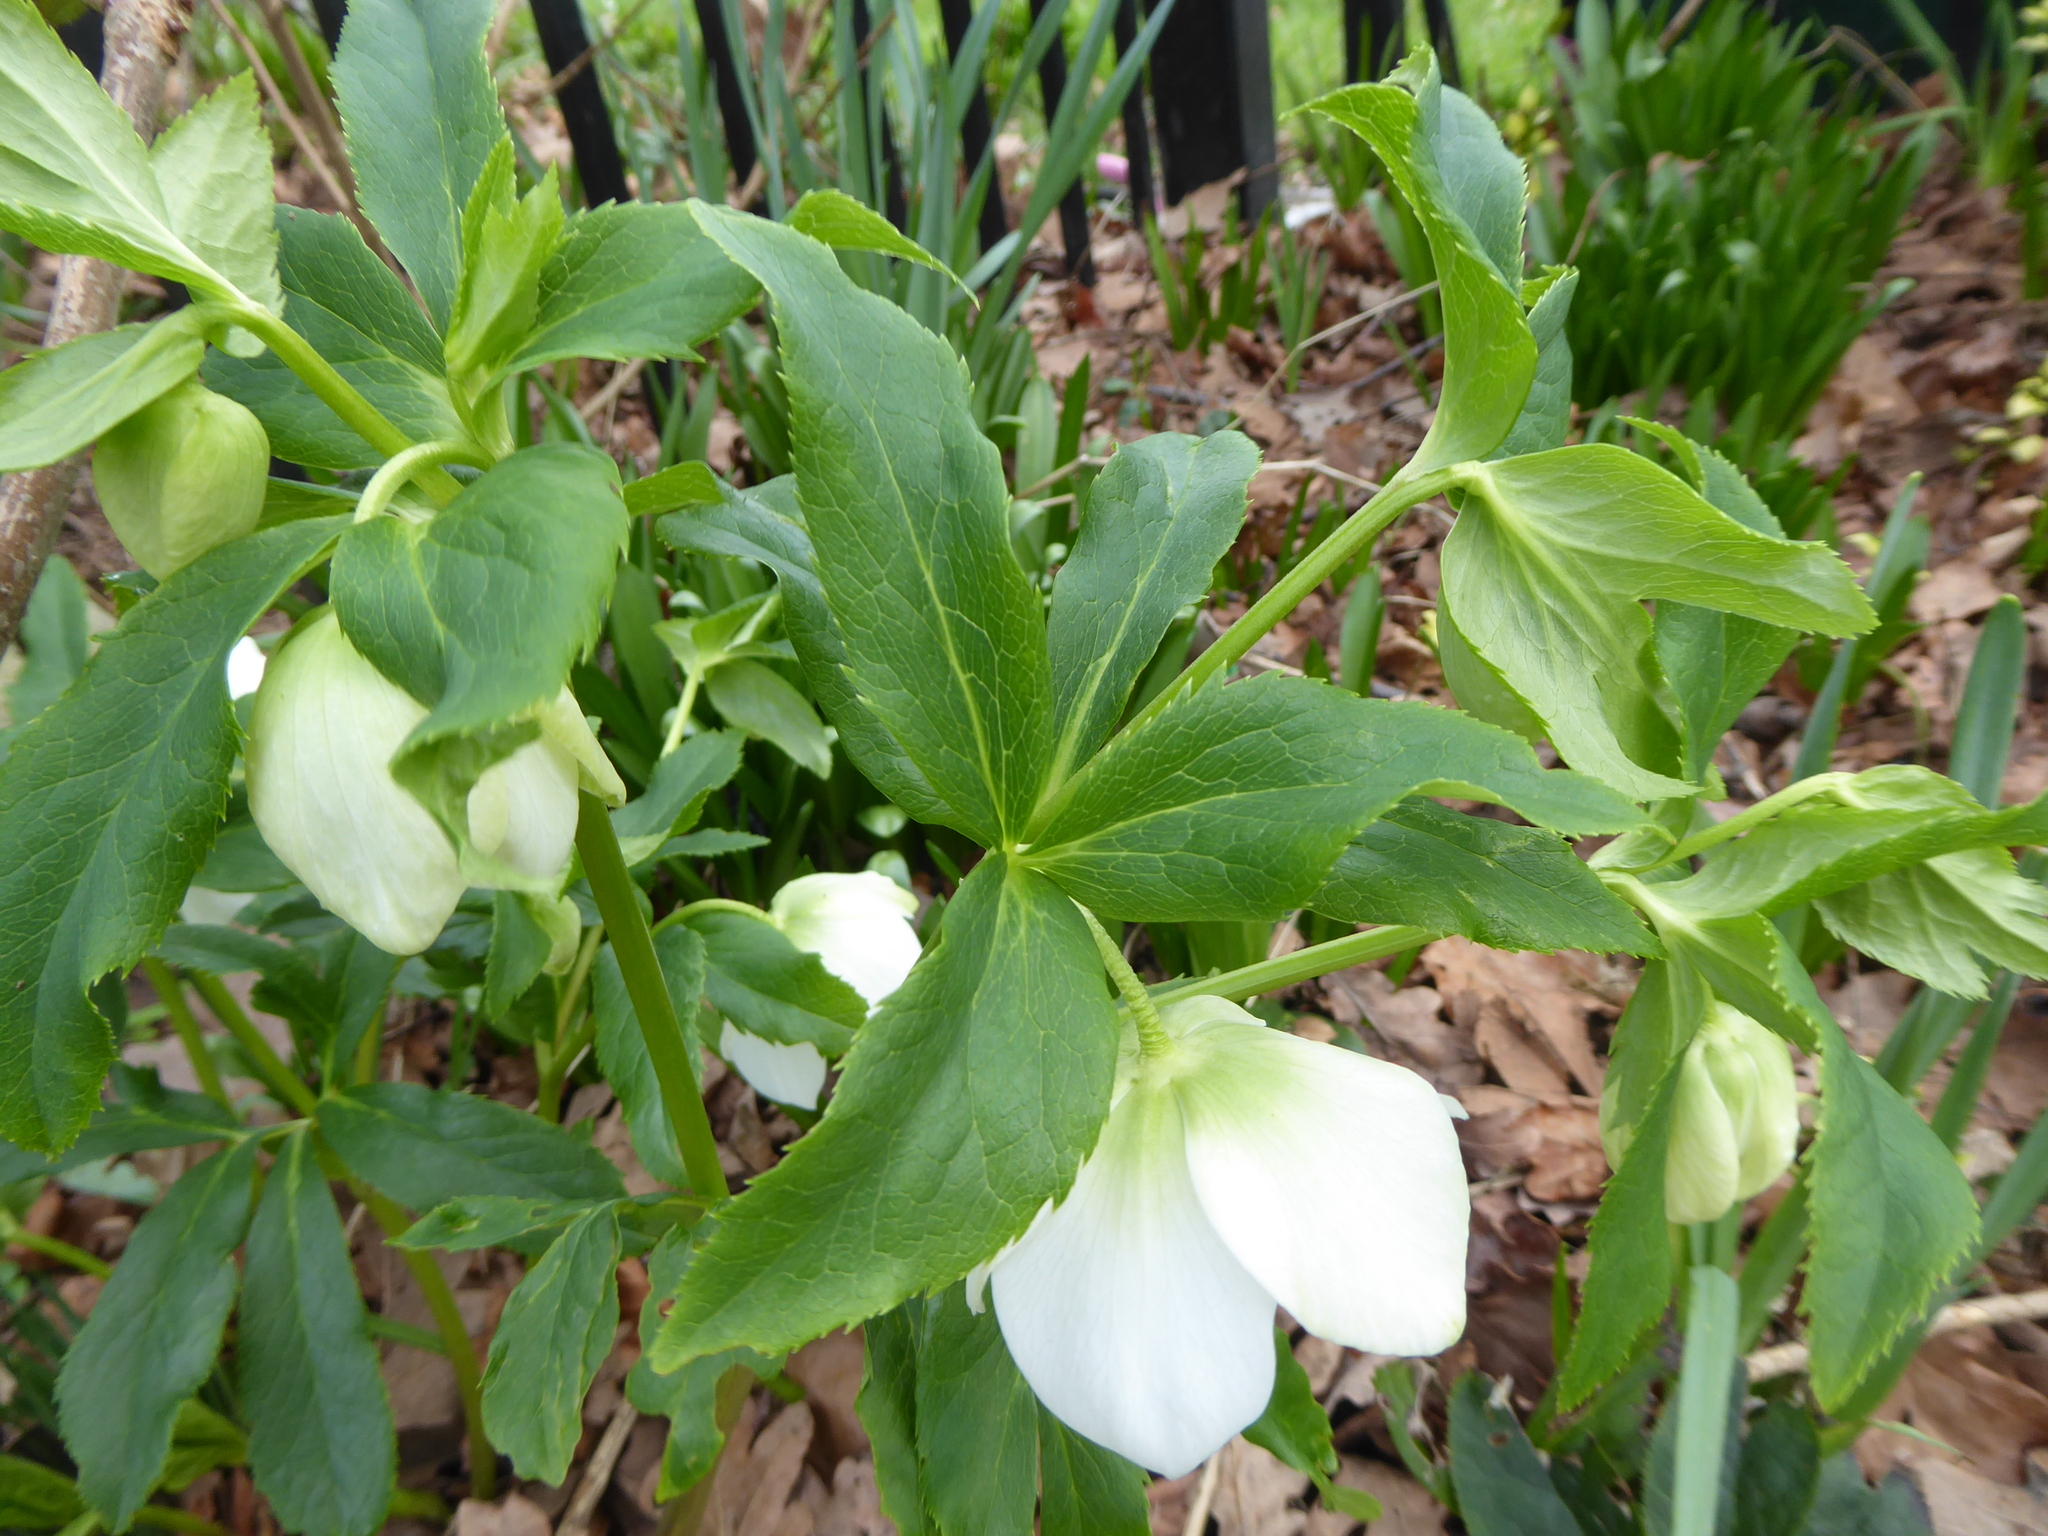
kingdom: Plantae
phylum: Tracheophyta
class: Magnoliopsida
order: Ranunculales
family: Ranunculaceae
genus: Helleborus
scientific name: Helleborus orientalis
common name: Lenten-rose
